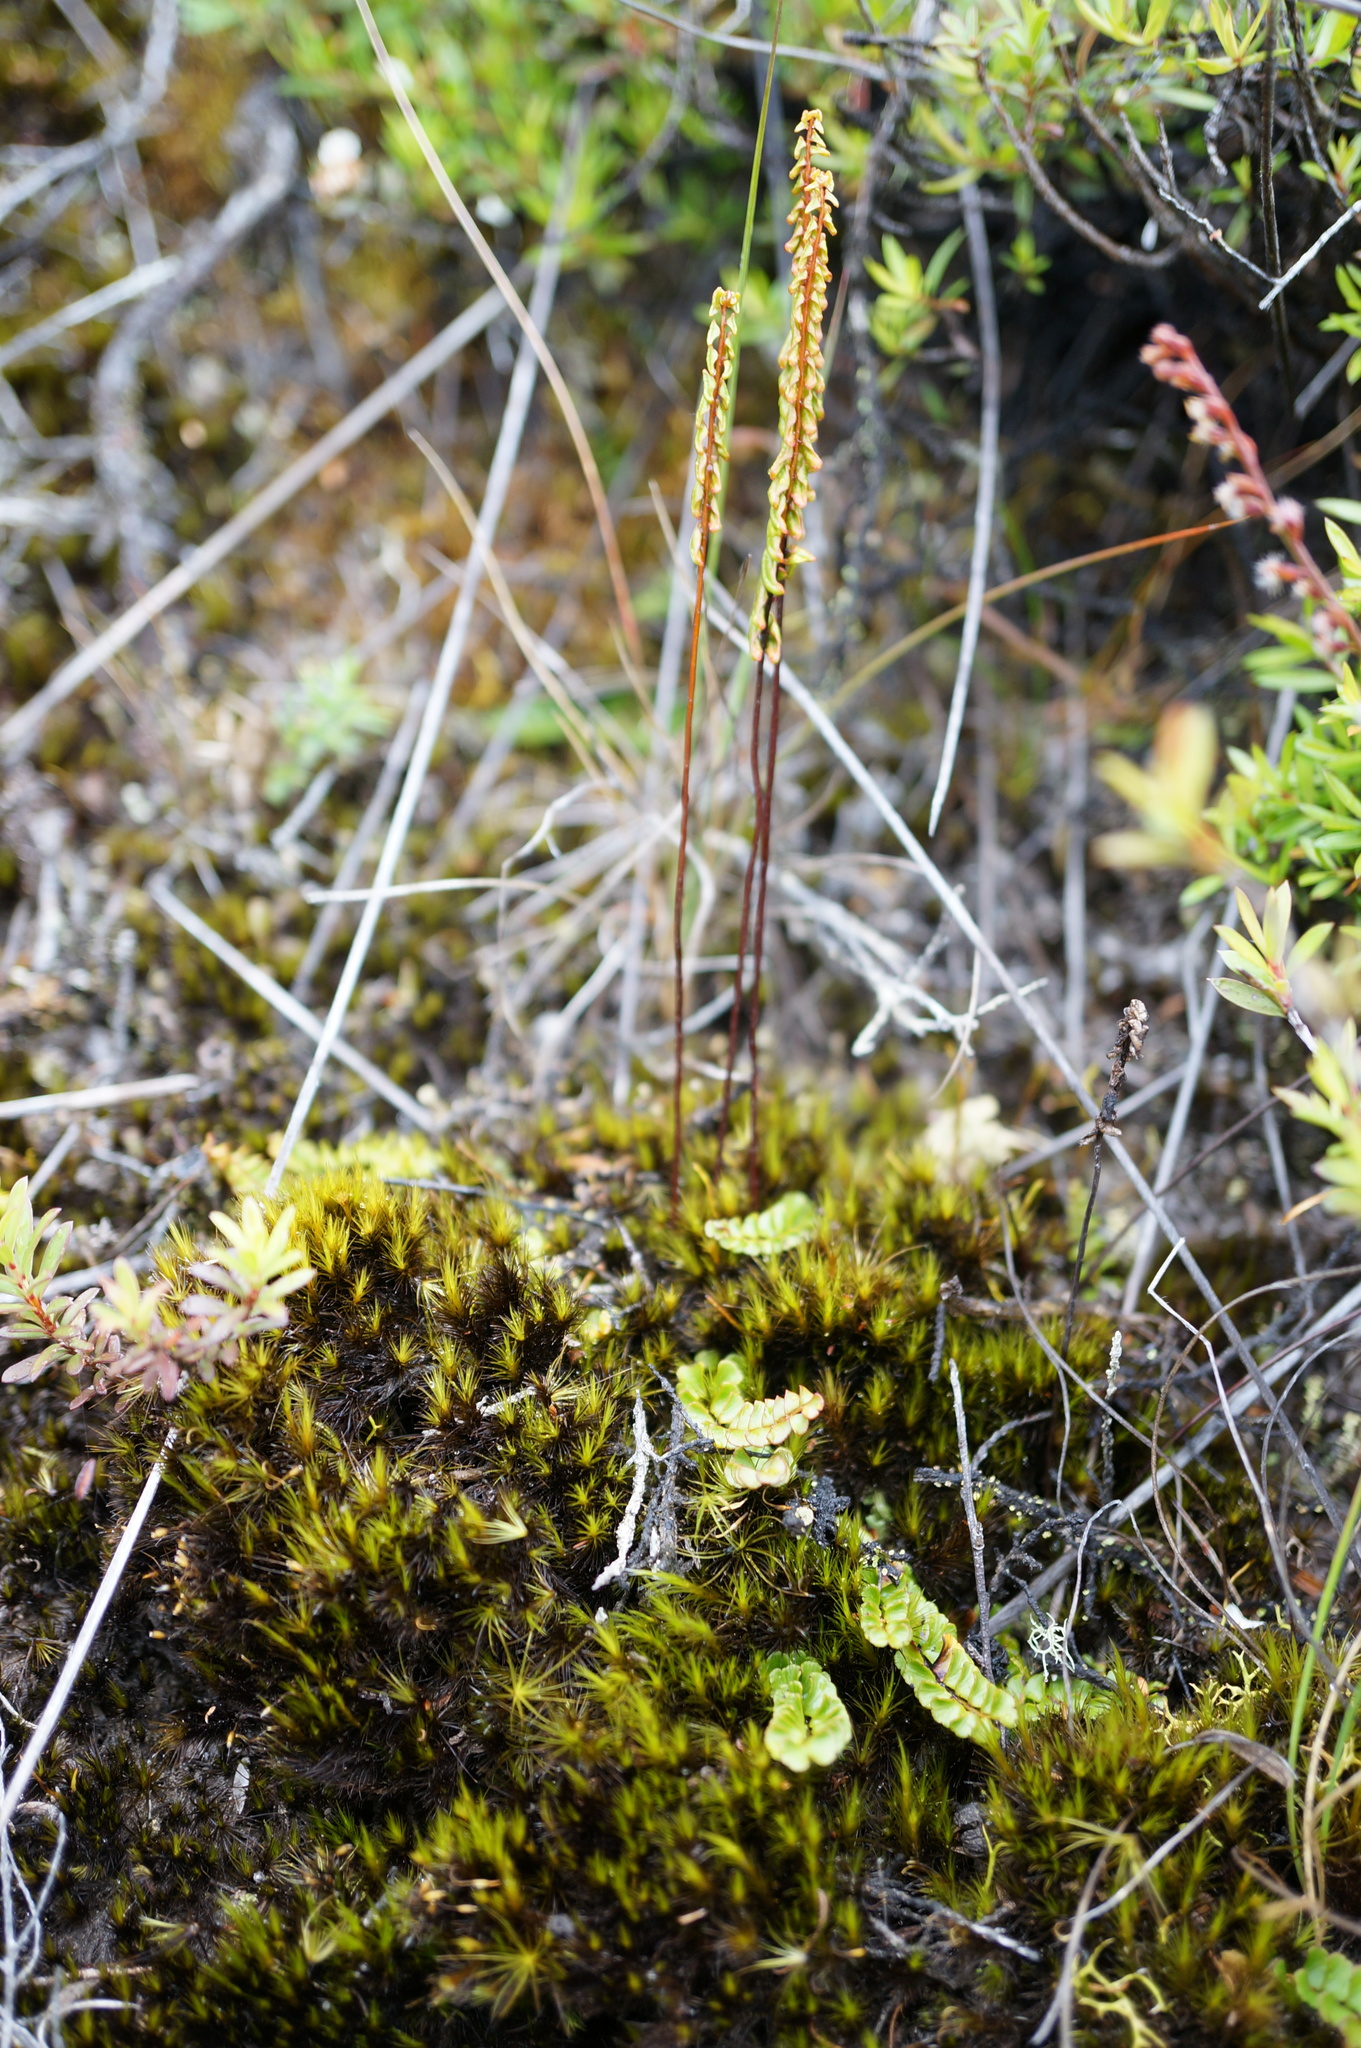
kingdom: Plantae
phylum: Tracheophyta
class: Polypodiopsida
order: Polypodiales
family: Lindsaeaceae
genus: Lindsaea
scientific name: Lindsaea linearis
